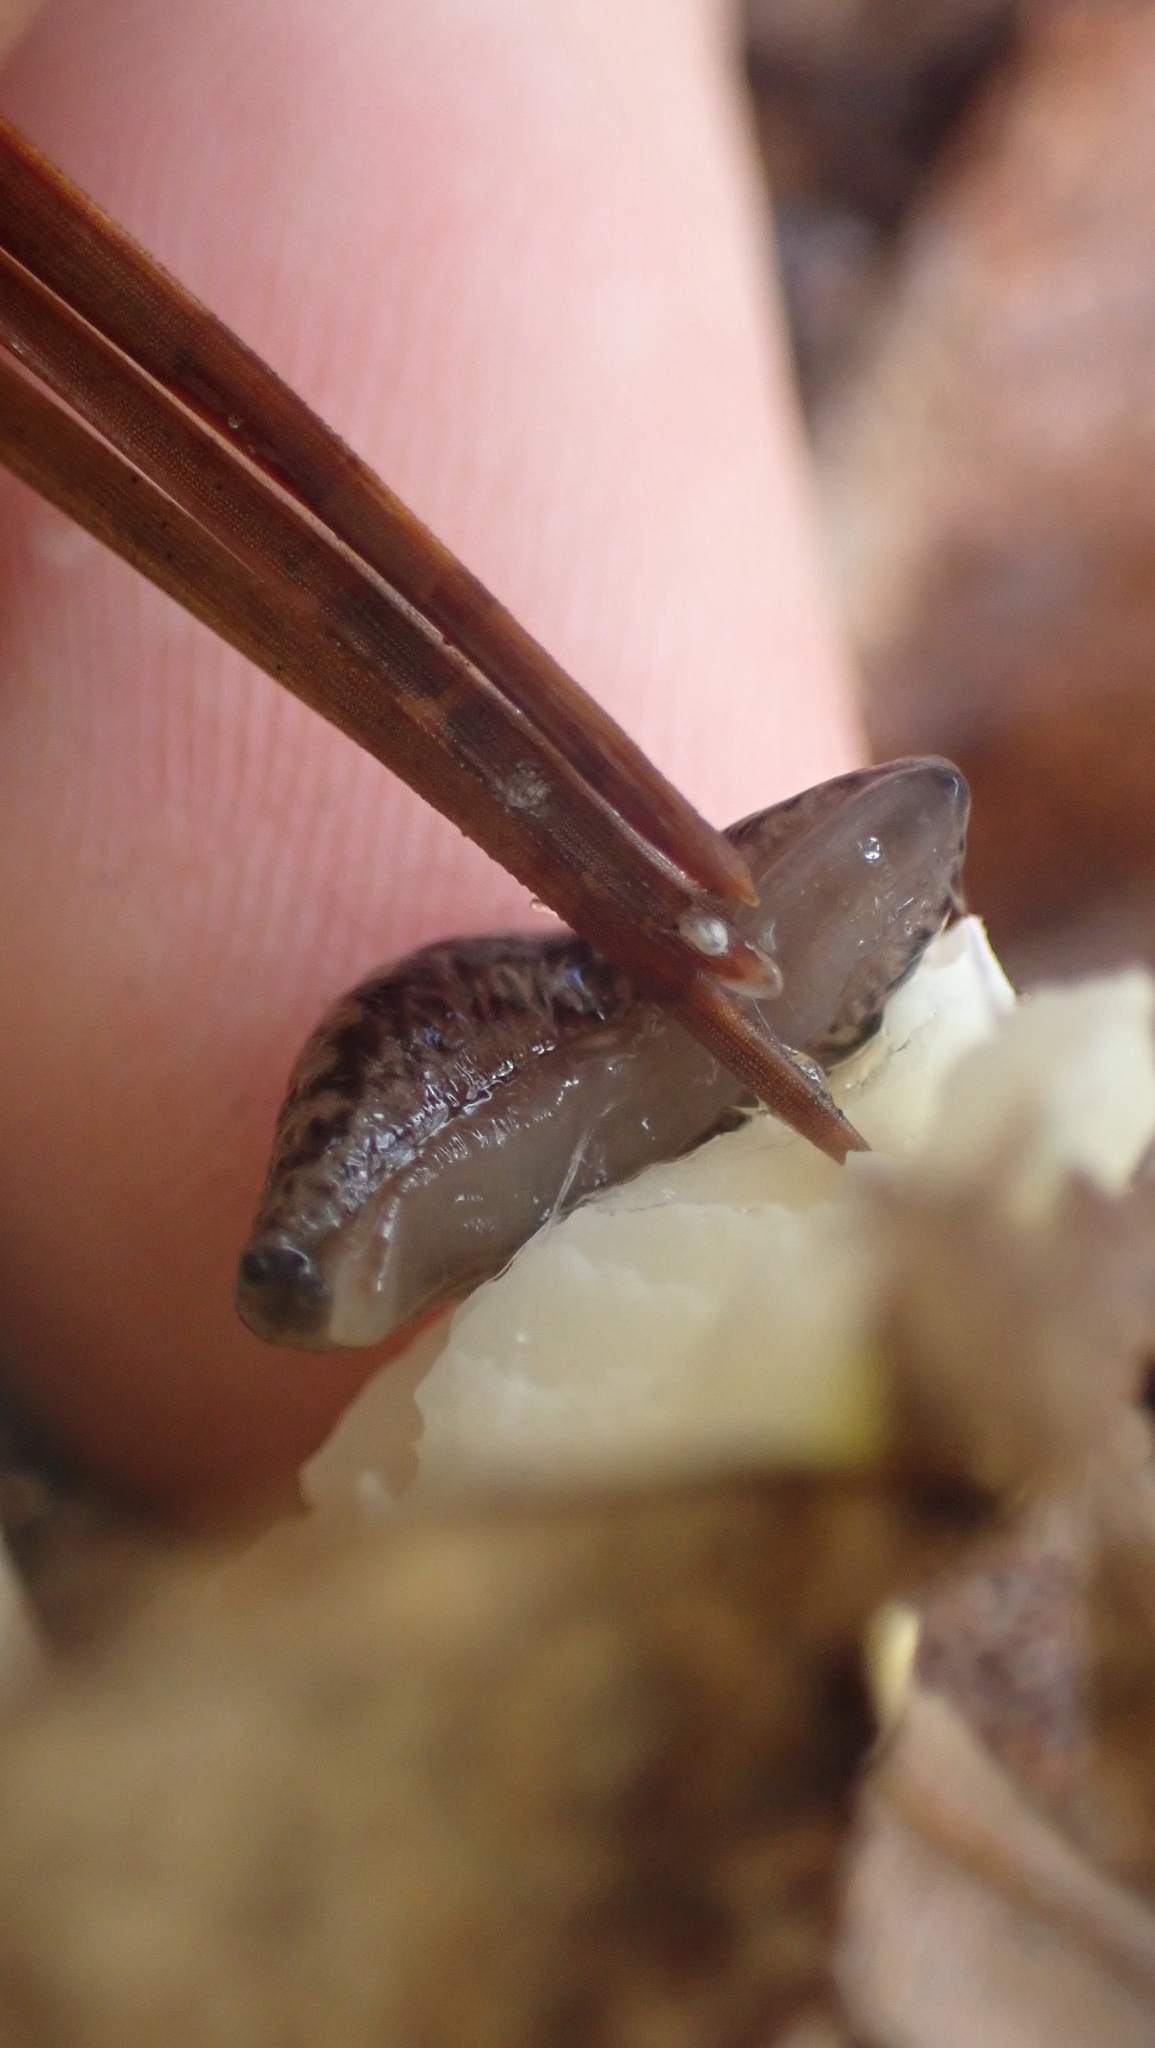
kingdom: Animalia
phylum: Mollusca
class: Gastropoda
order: Stylommatophora
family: Philomycidae
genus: Pallifera
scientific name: Pallifera fosteri
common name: Foster mantleslug
